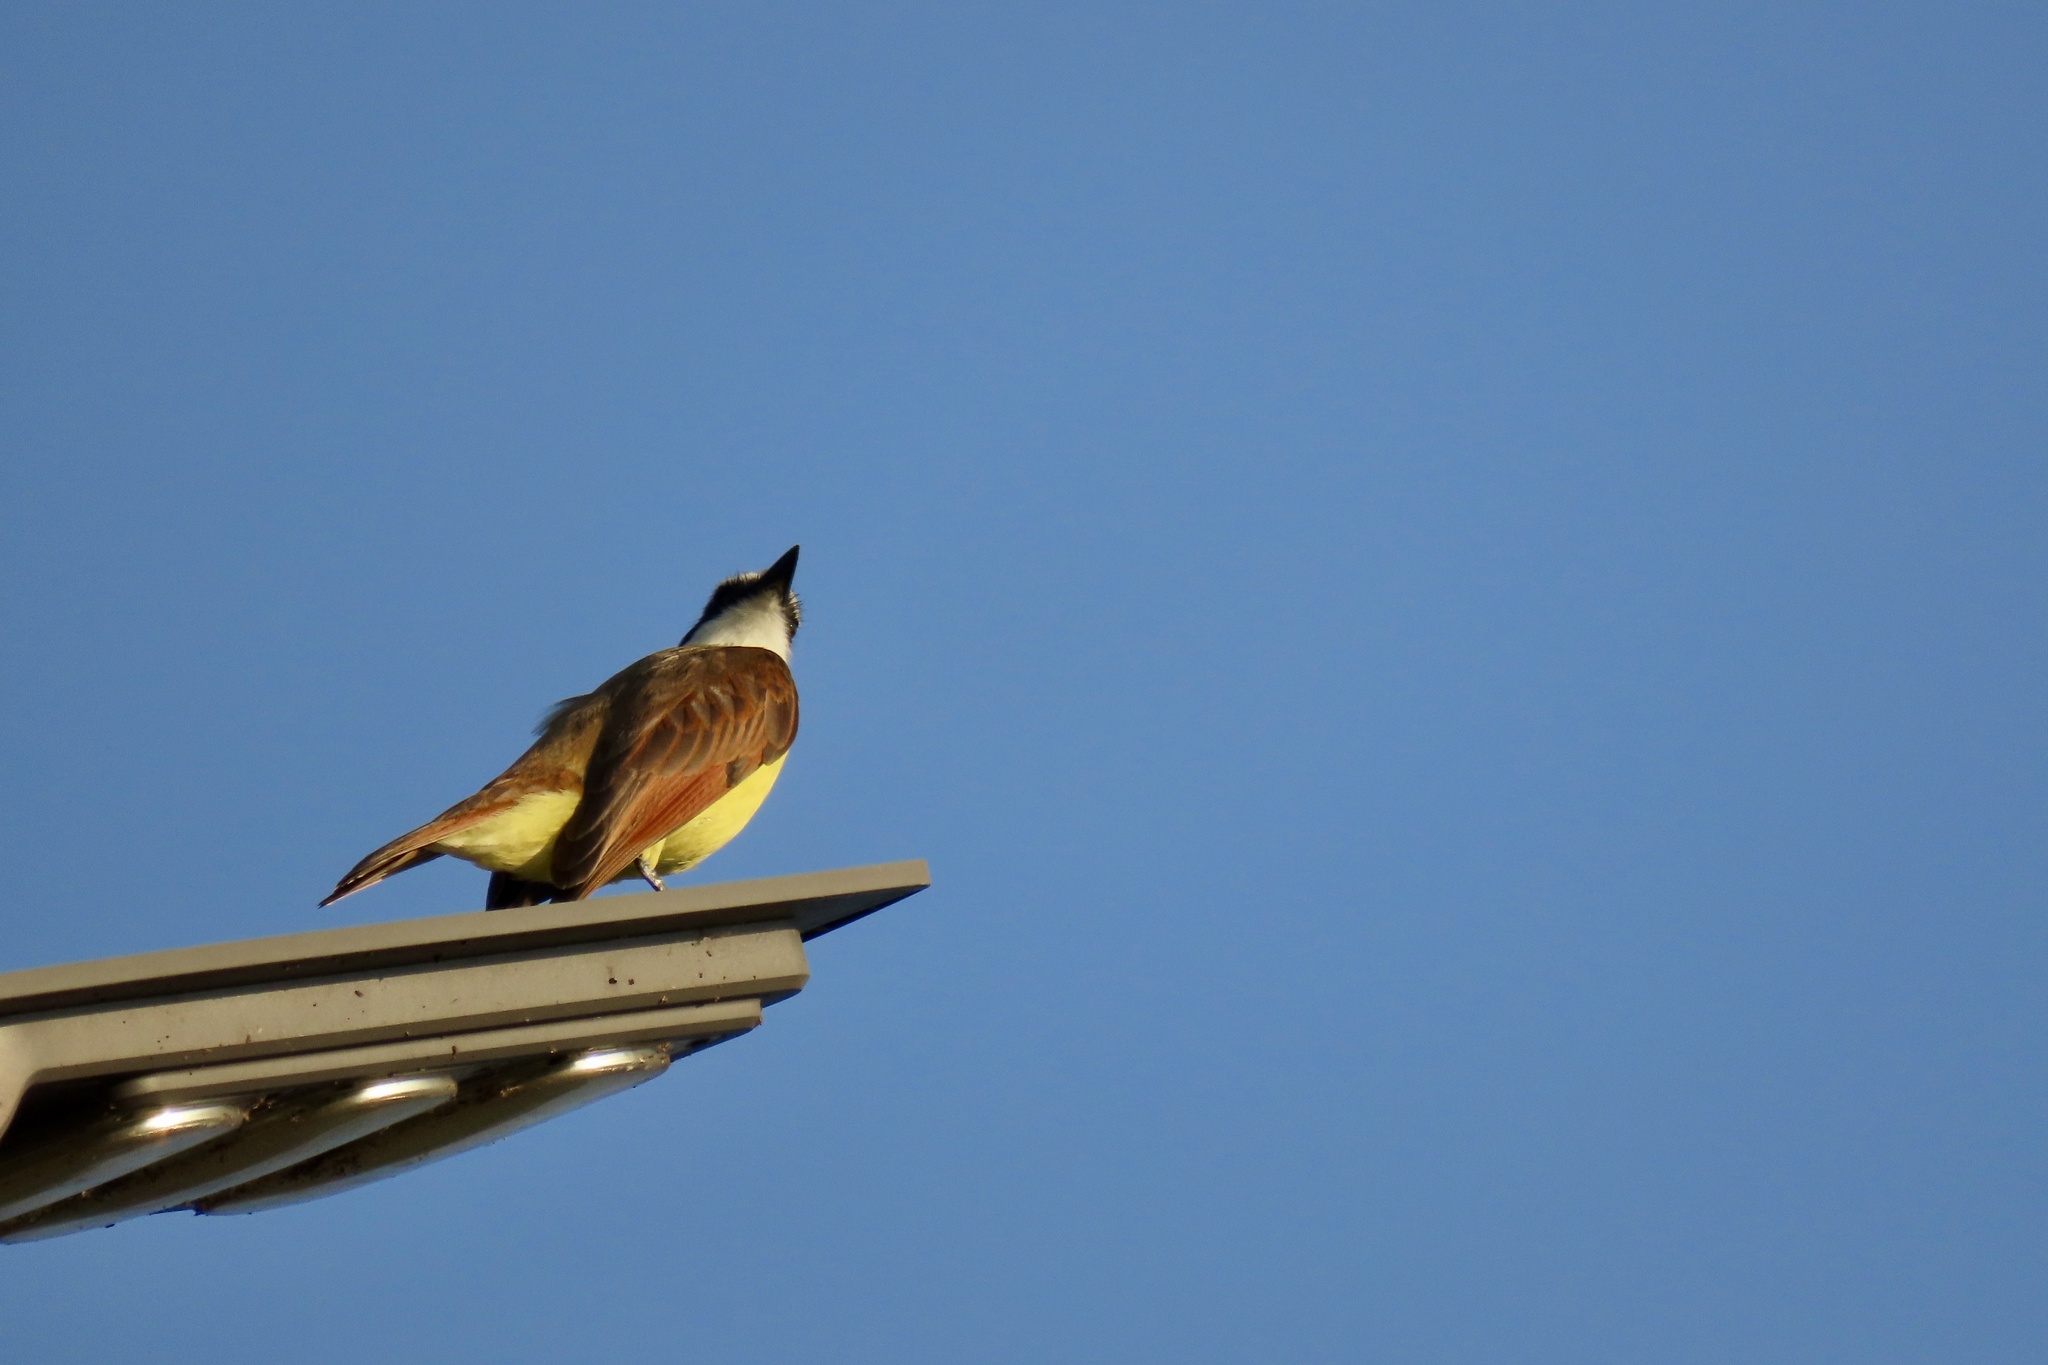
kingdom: Animalia
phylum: Chordata
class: Aves
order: Passeriformes
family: Tyrannidae
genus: Pitangus
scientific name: Pitangus sulphuratus
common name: Great kiskadee
